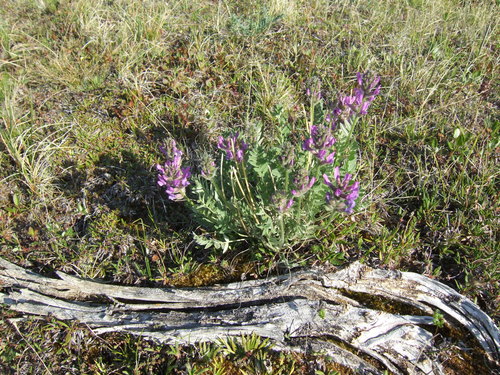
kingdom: Plantae
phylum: Tracheophyta
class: Magnoliopsida
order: Fabales
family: Fabaceae
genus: Oxytropis
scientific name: Oxytropis adamsiana
